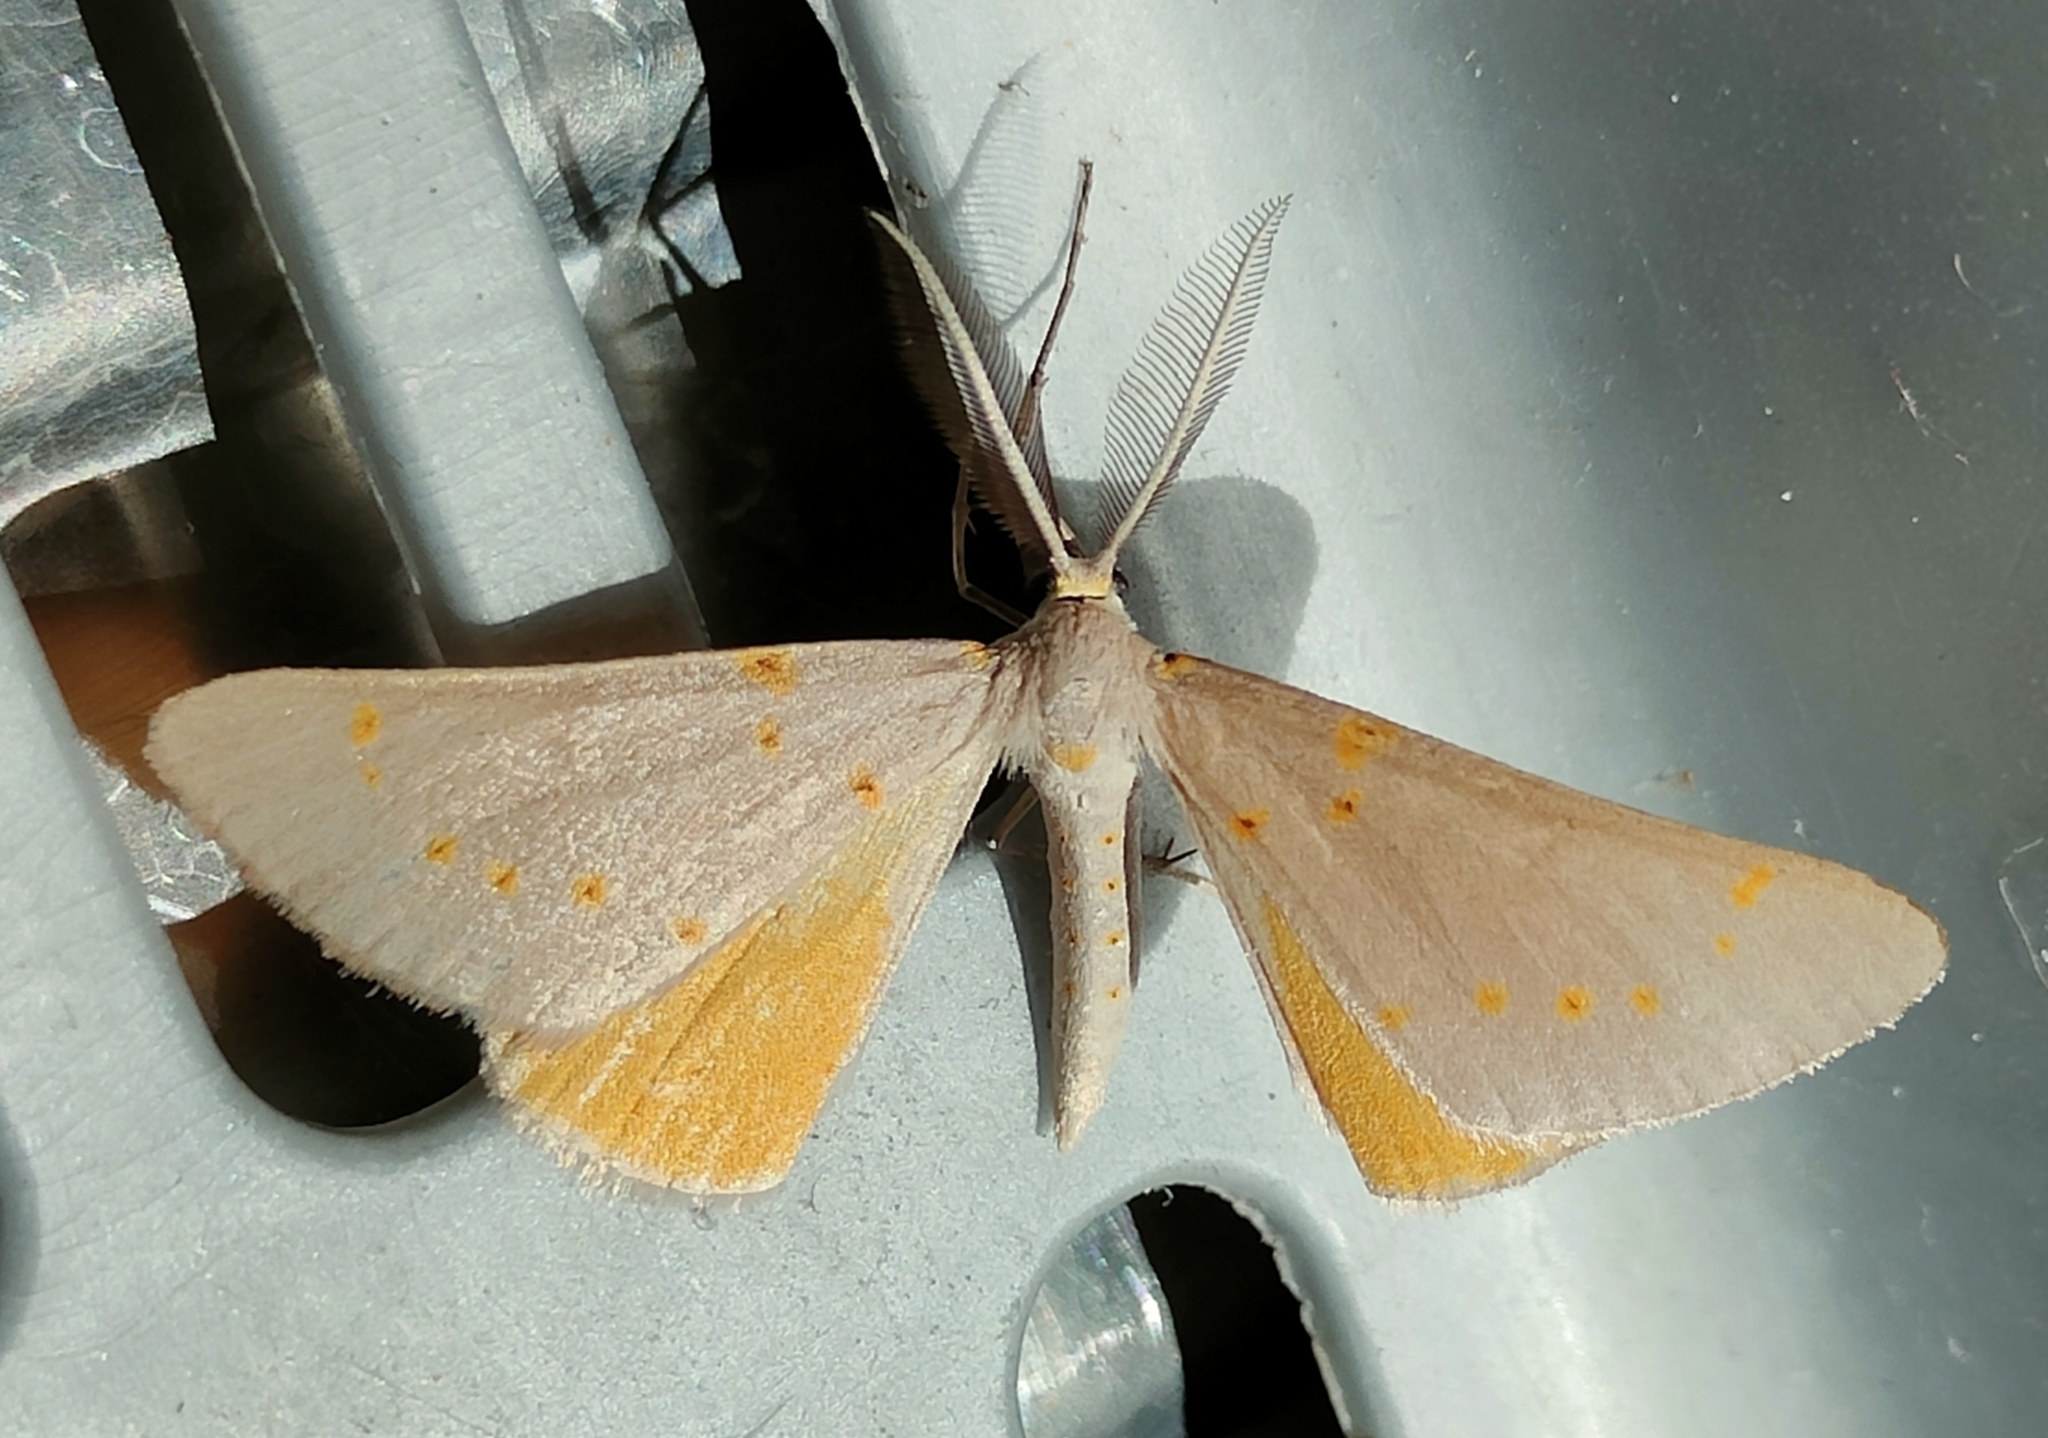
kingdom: Animalia
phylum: Arthropoda
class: Insecta
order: Lepidoptera
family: Geometridae
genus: Nassinia
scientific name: Nassinia pretoria
